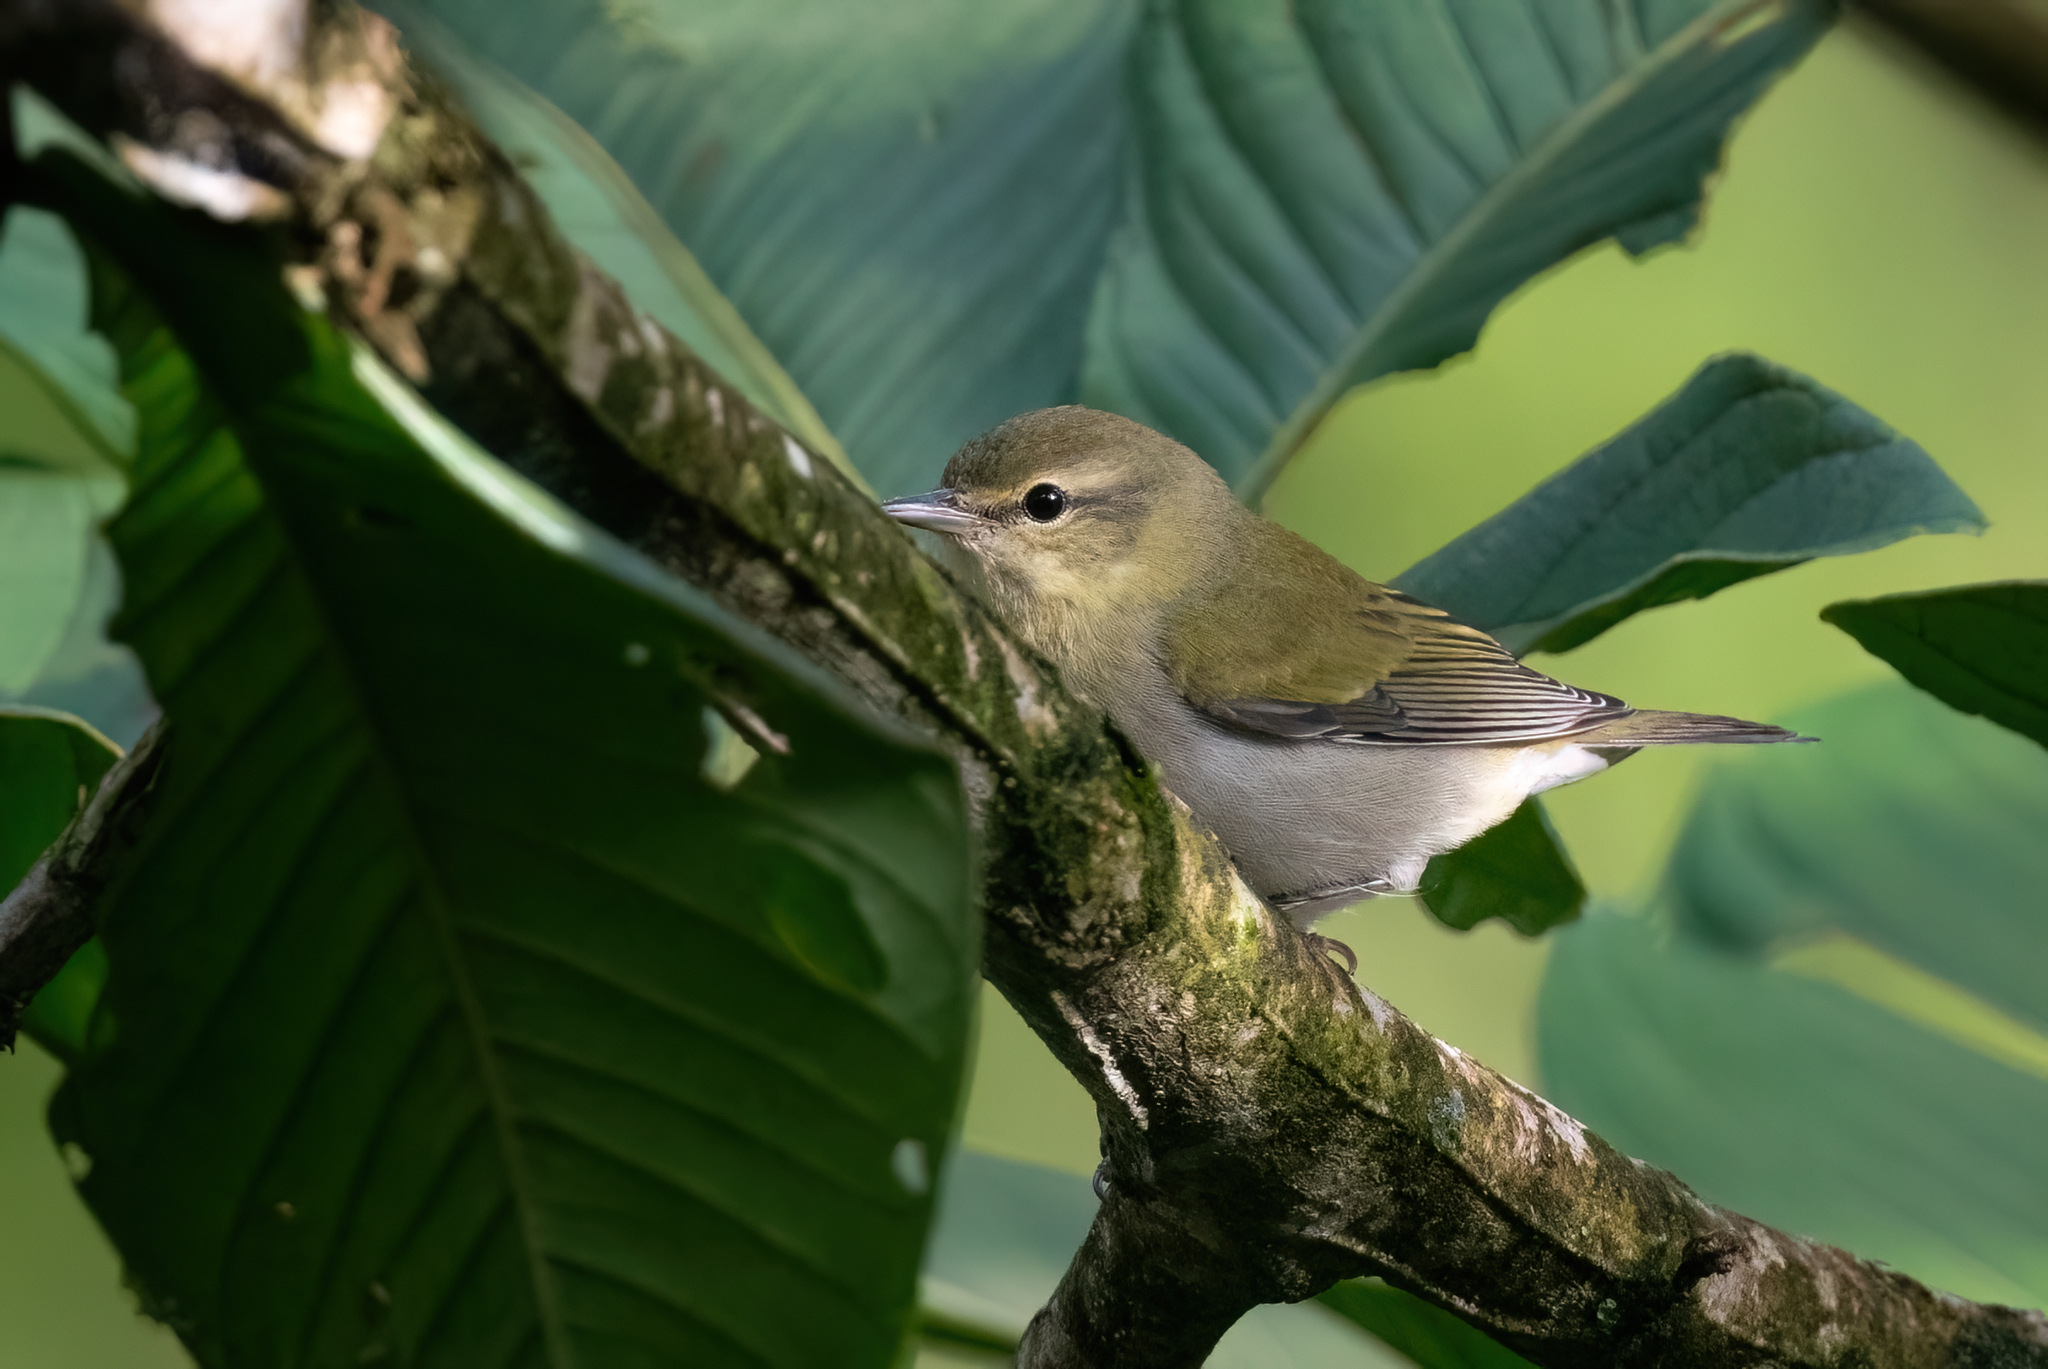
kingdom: Animalia
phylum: Chordata
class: Aves
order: Passeriformes
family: Parulidae
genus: Leiothlypis
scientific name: Leiothlypis peregrina
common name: Tennessee warbler
